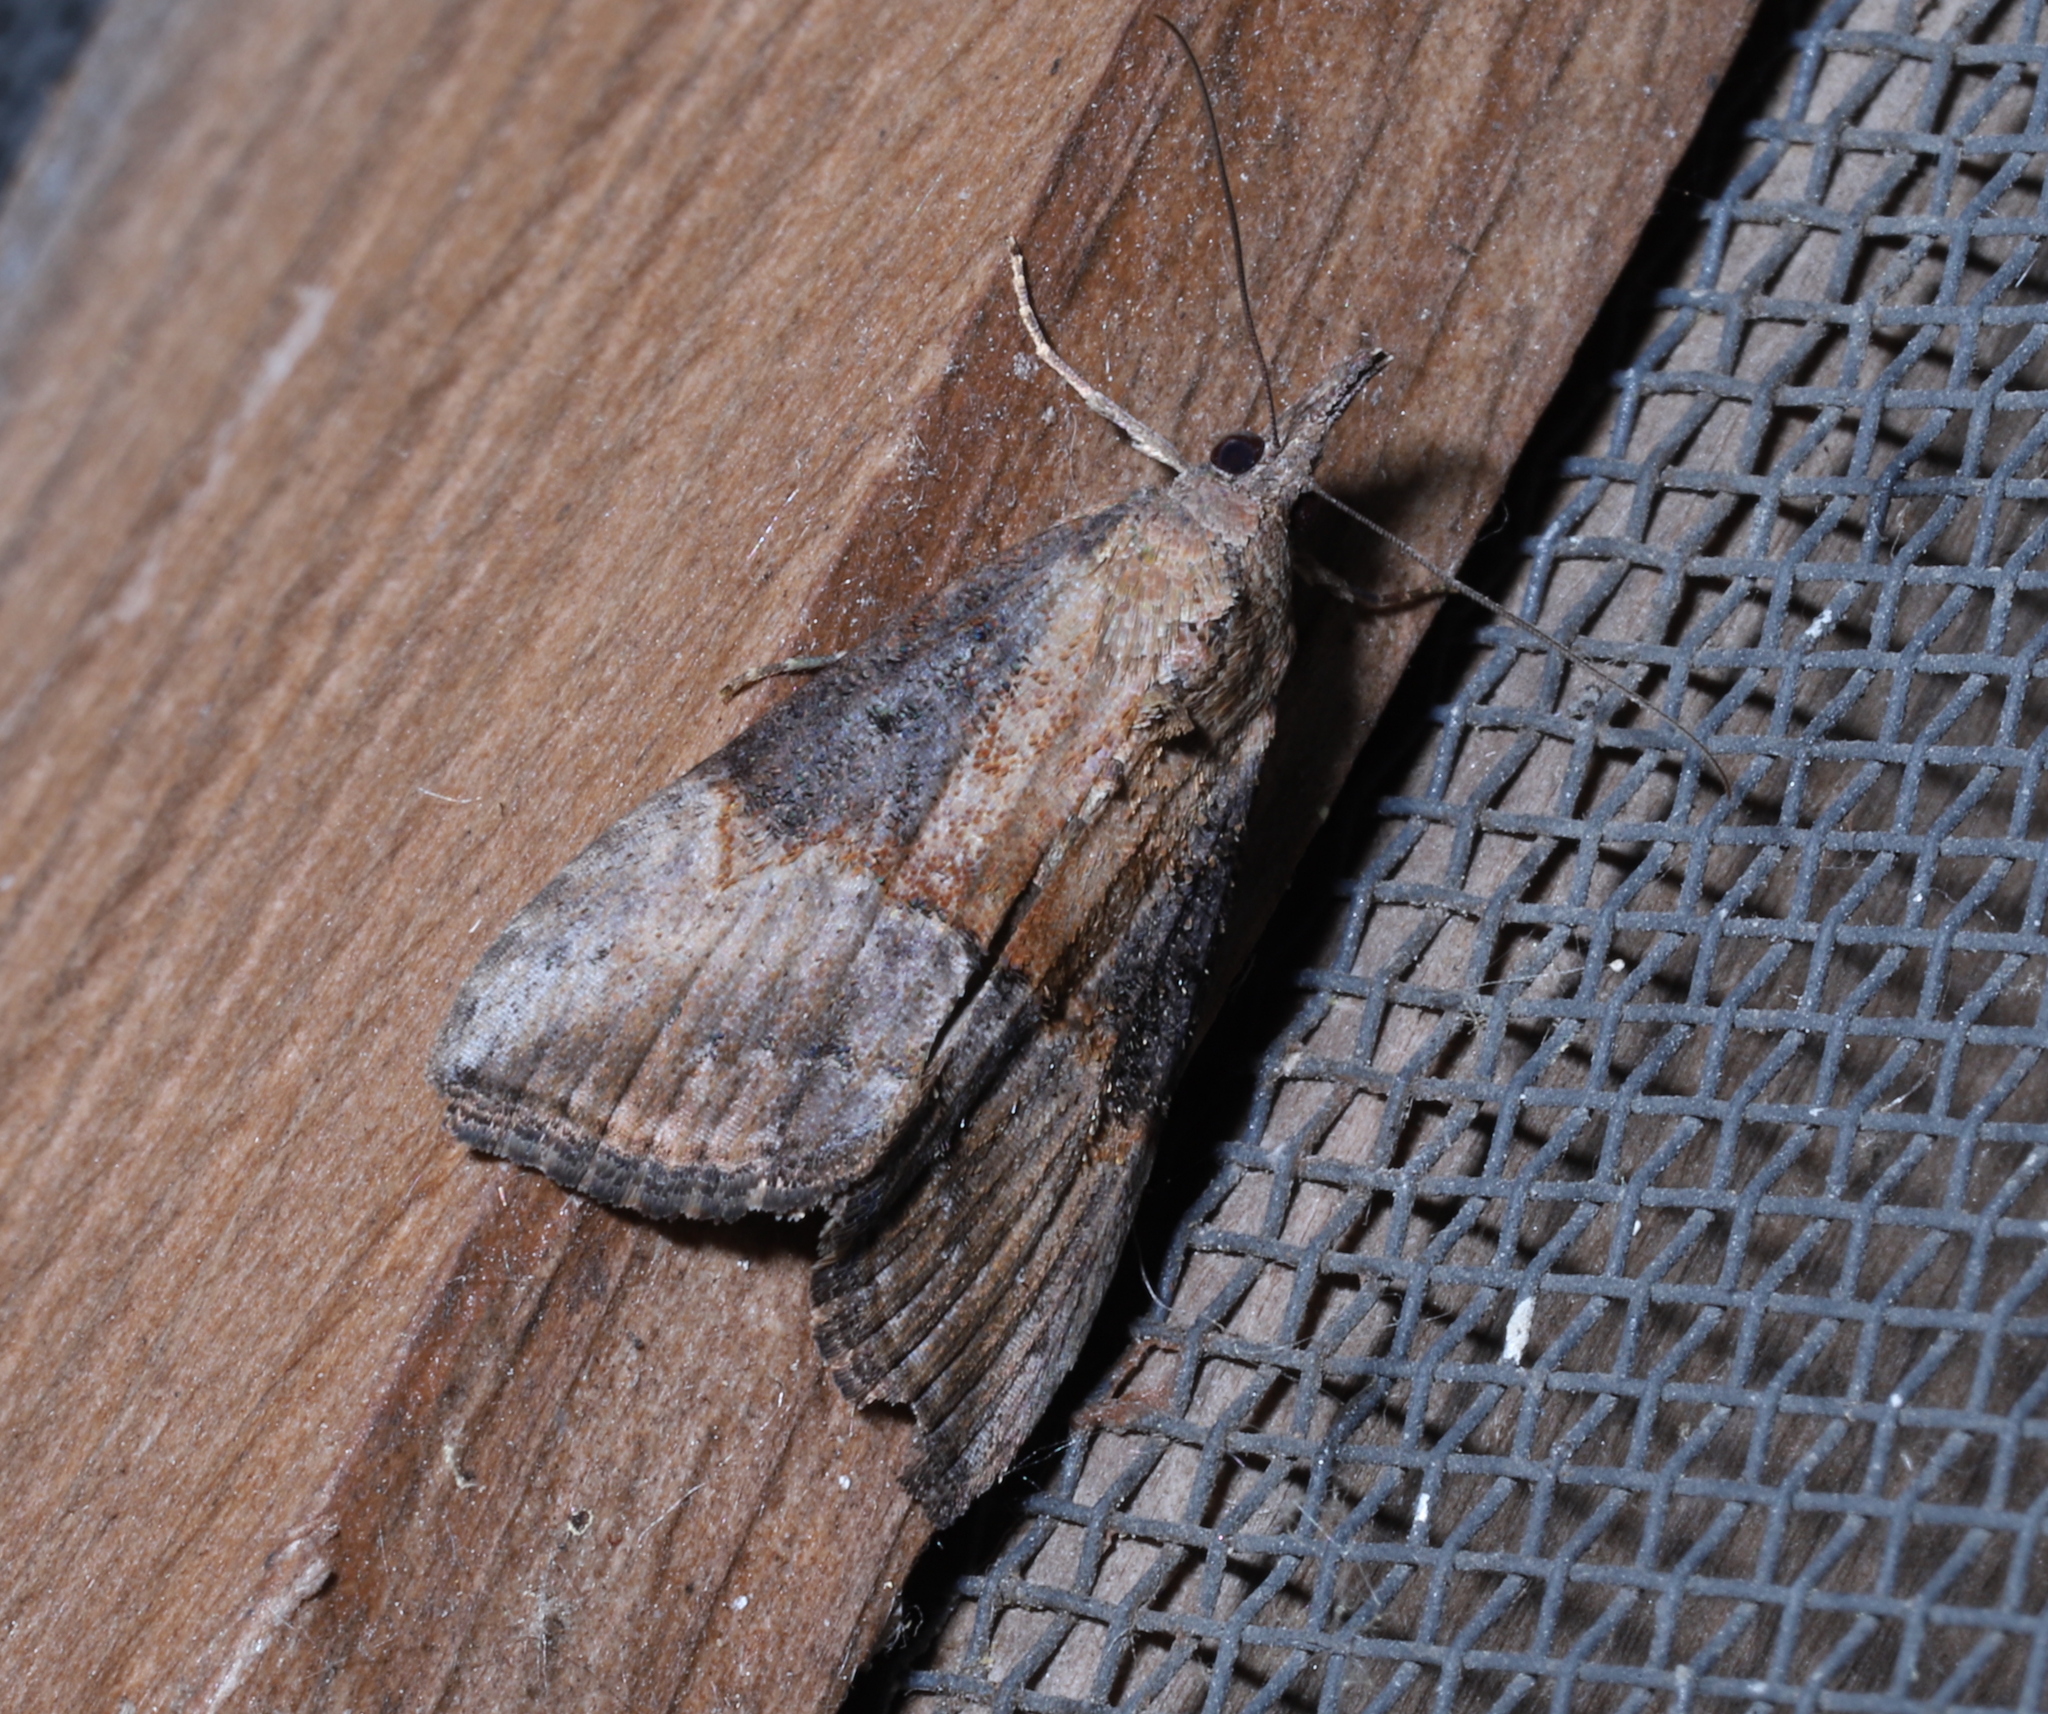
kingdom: Animalia
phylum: Arthropoda
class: Insecta
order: Lepidoptera
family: Erebidae
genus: Hypena
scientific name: Hypena scabra
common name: Green cloverworm
